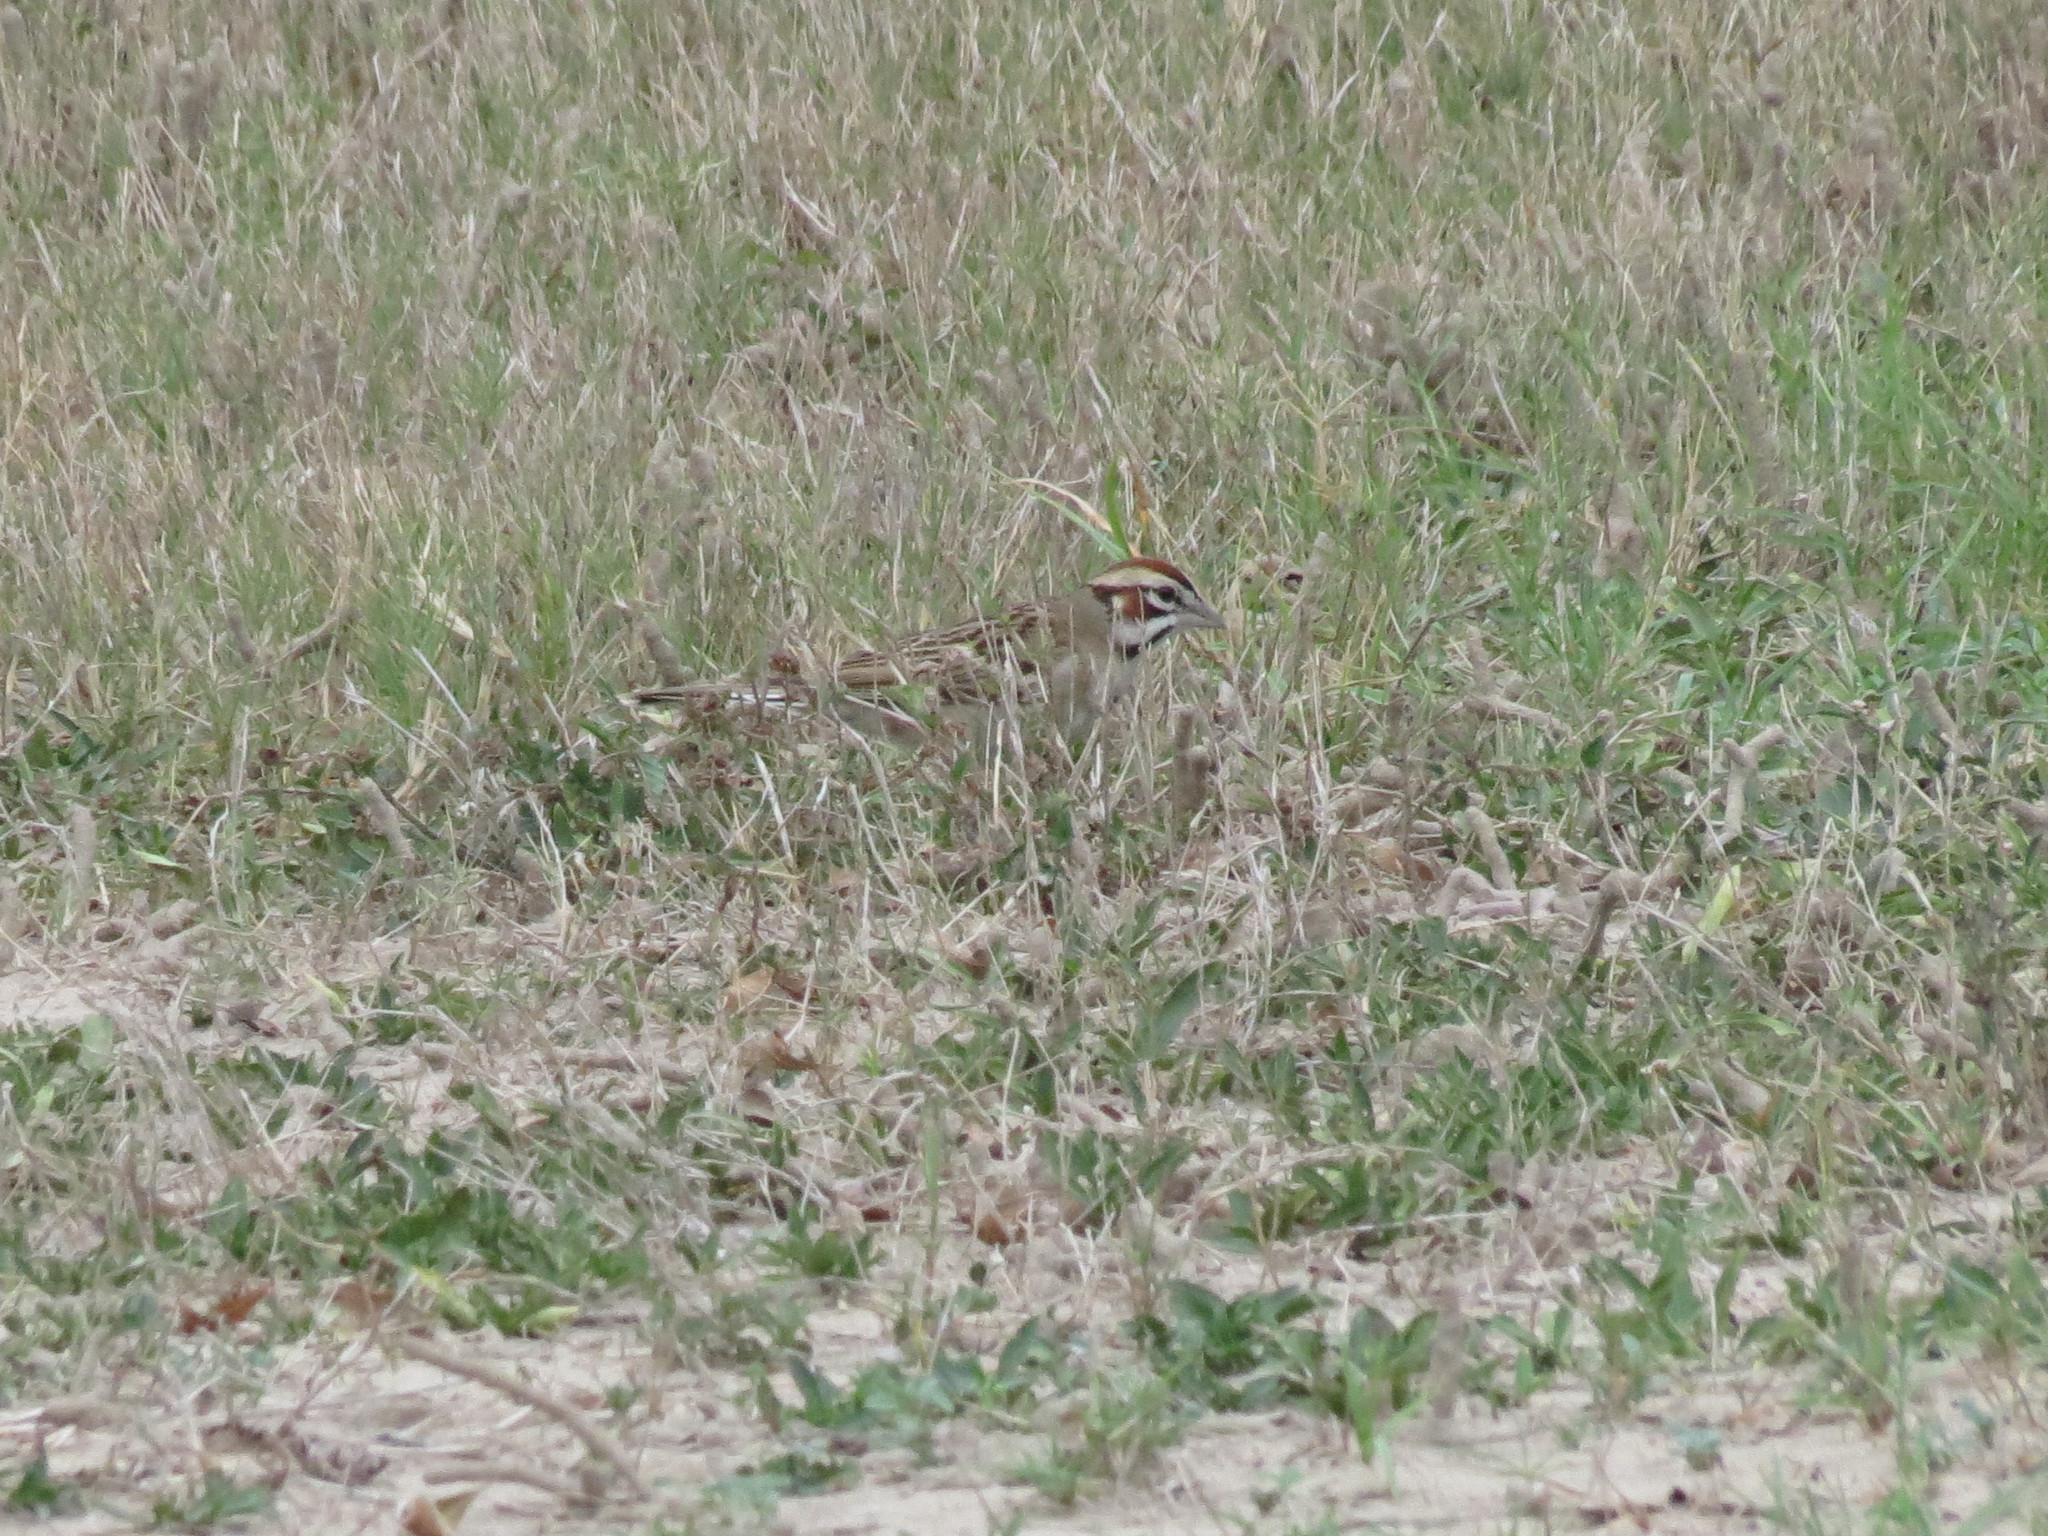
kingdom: Animalia
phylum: Chordata
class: Aves
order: Passeriformes
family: Passerellidae
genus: Chondestes
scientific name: Chondestes grammacus
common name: Lark sparrow
